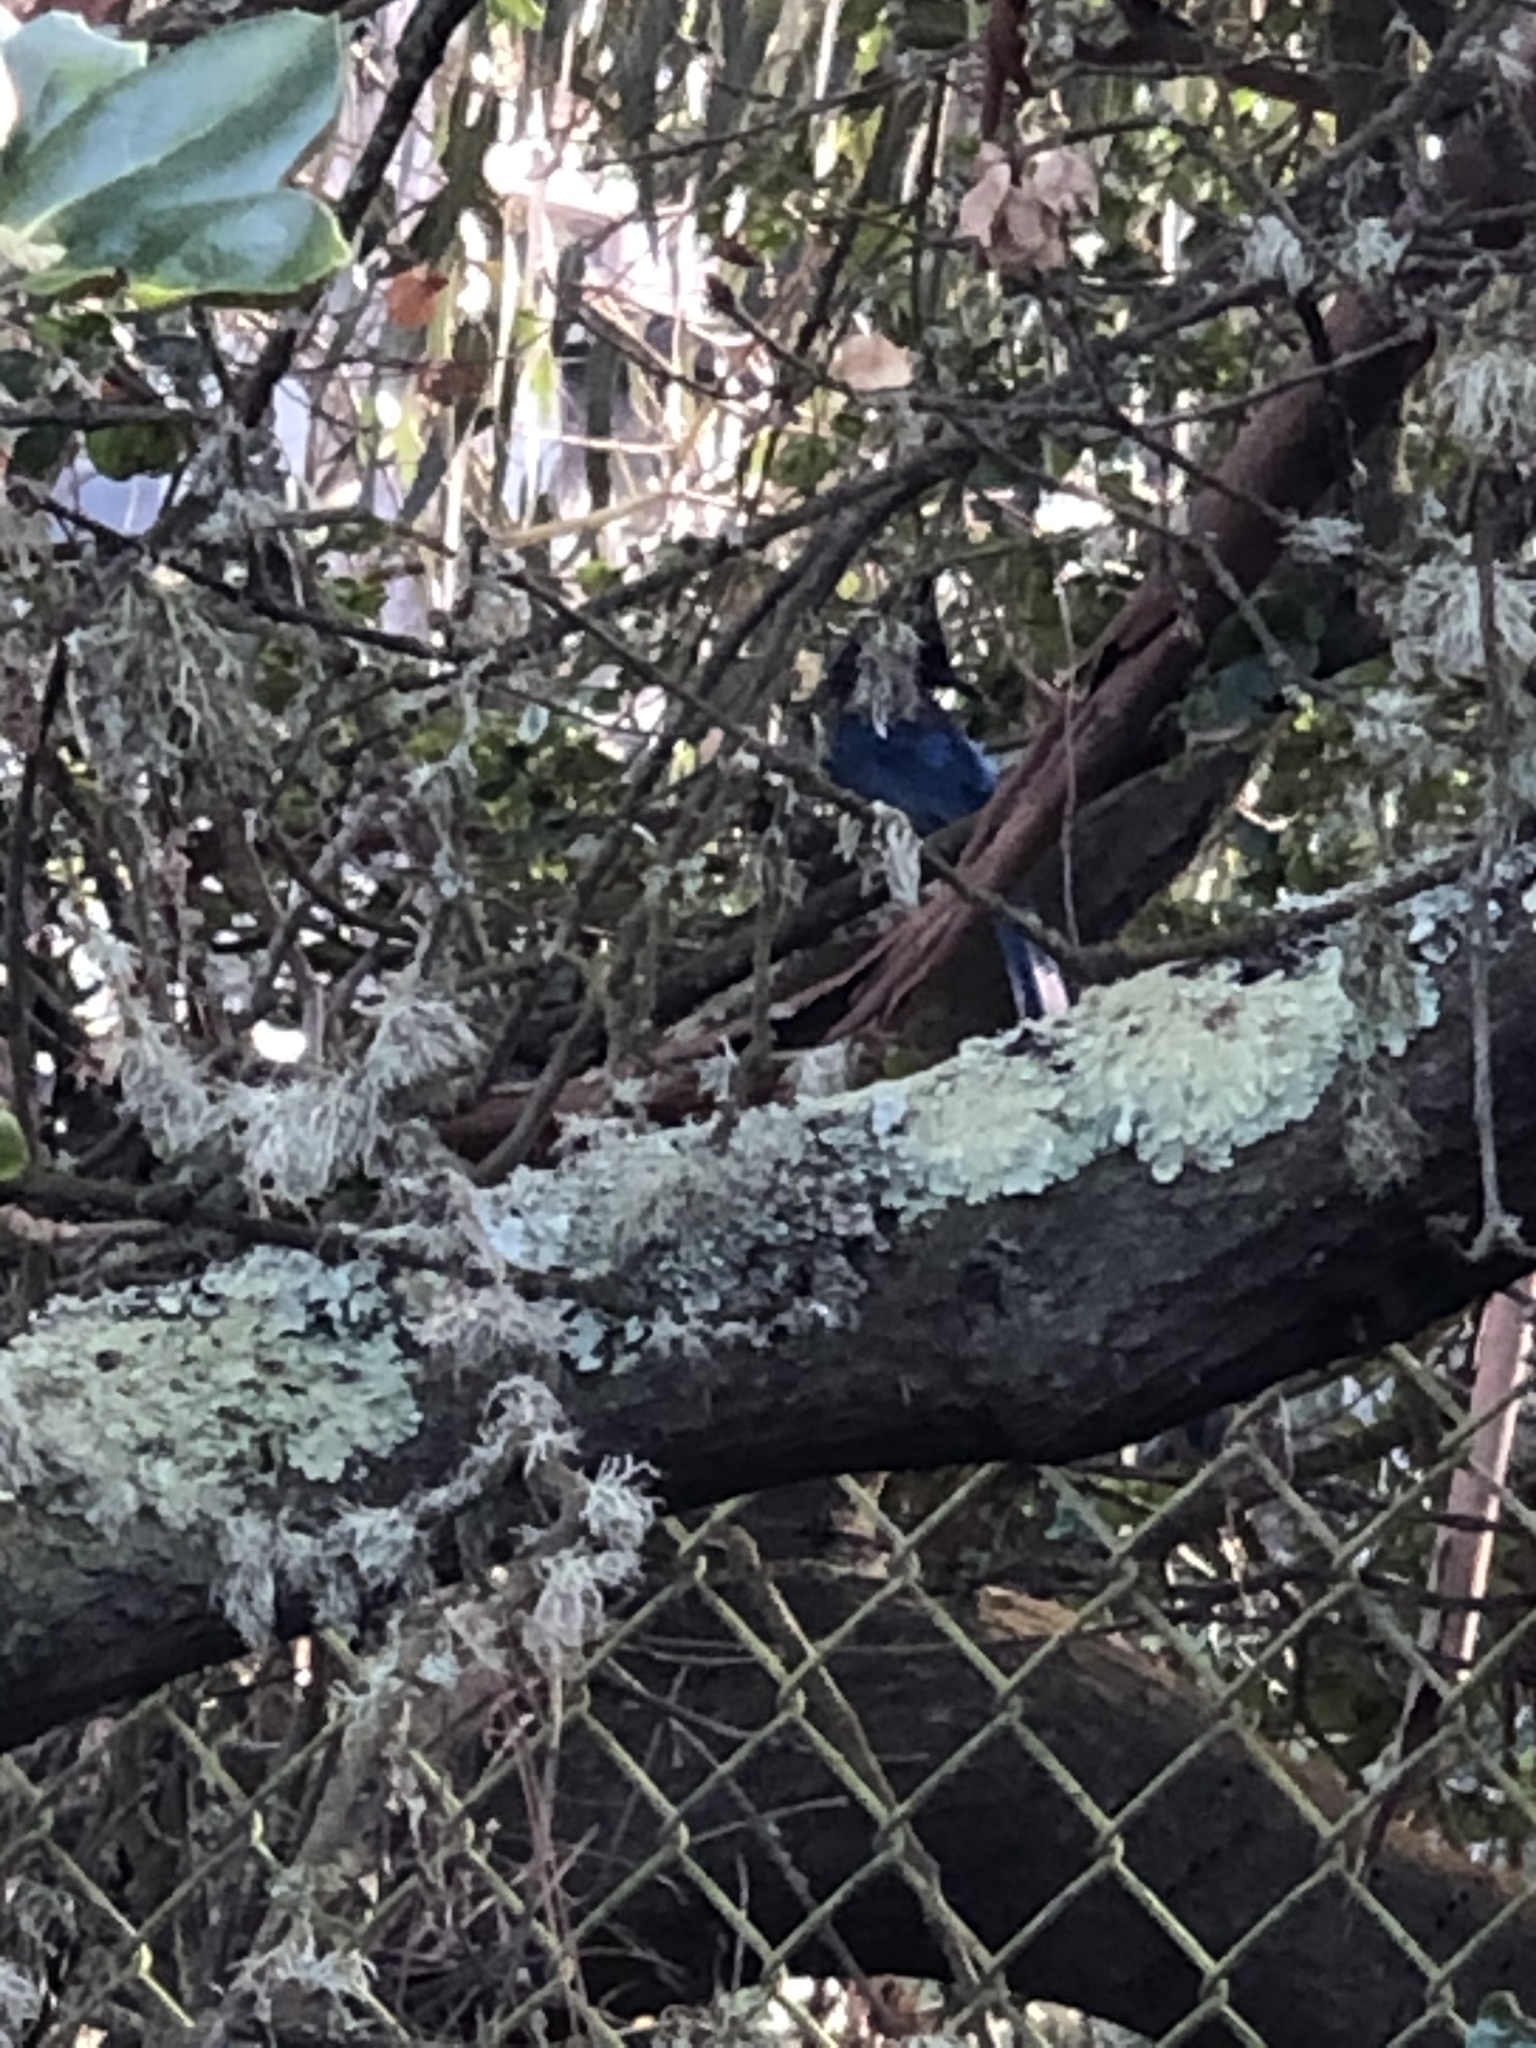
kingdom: Animalia
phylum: Chordata
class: Aves
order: Passeriformes
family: Corvidae
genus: Cyanocitta
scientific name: Cyanocitta stelleri
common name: Steller's jay
